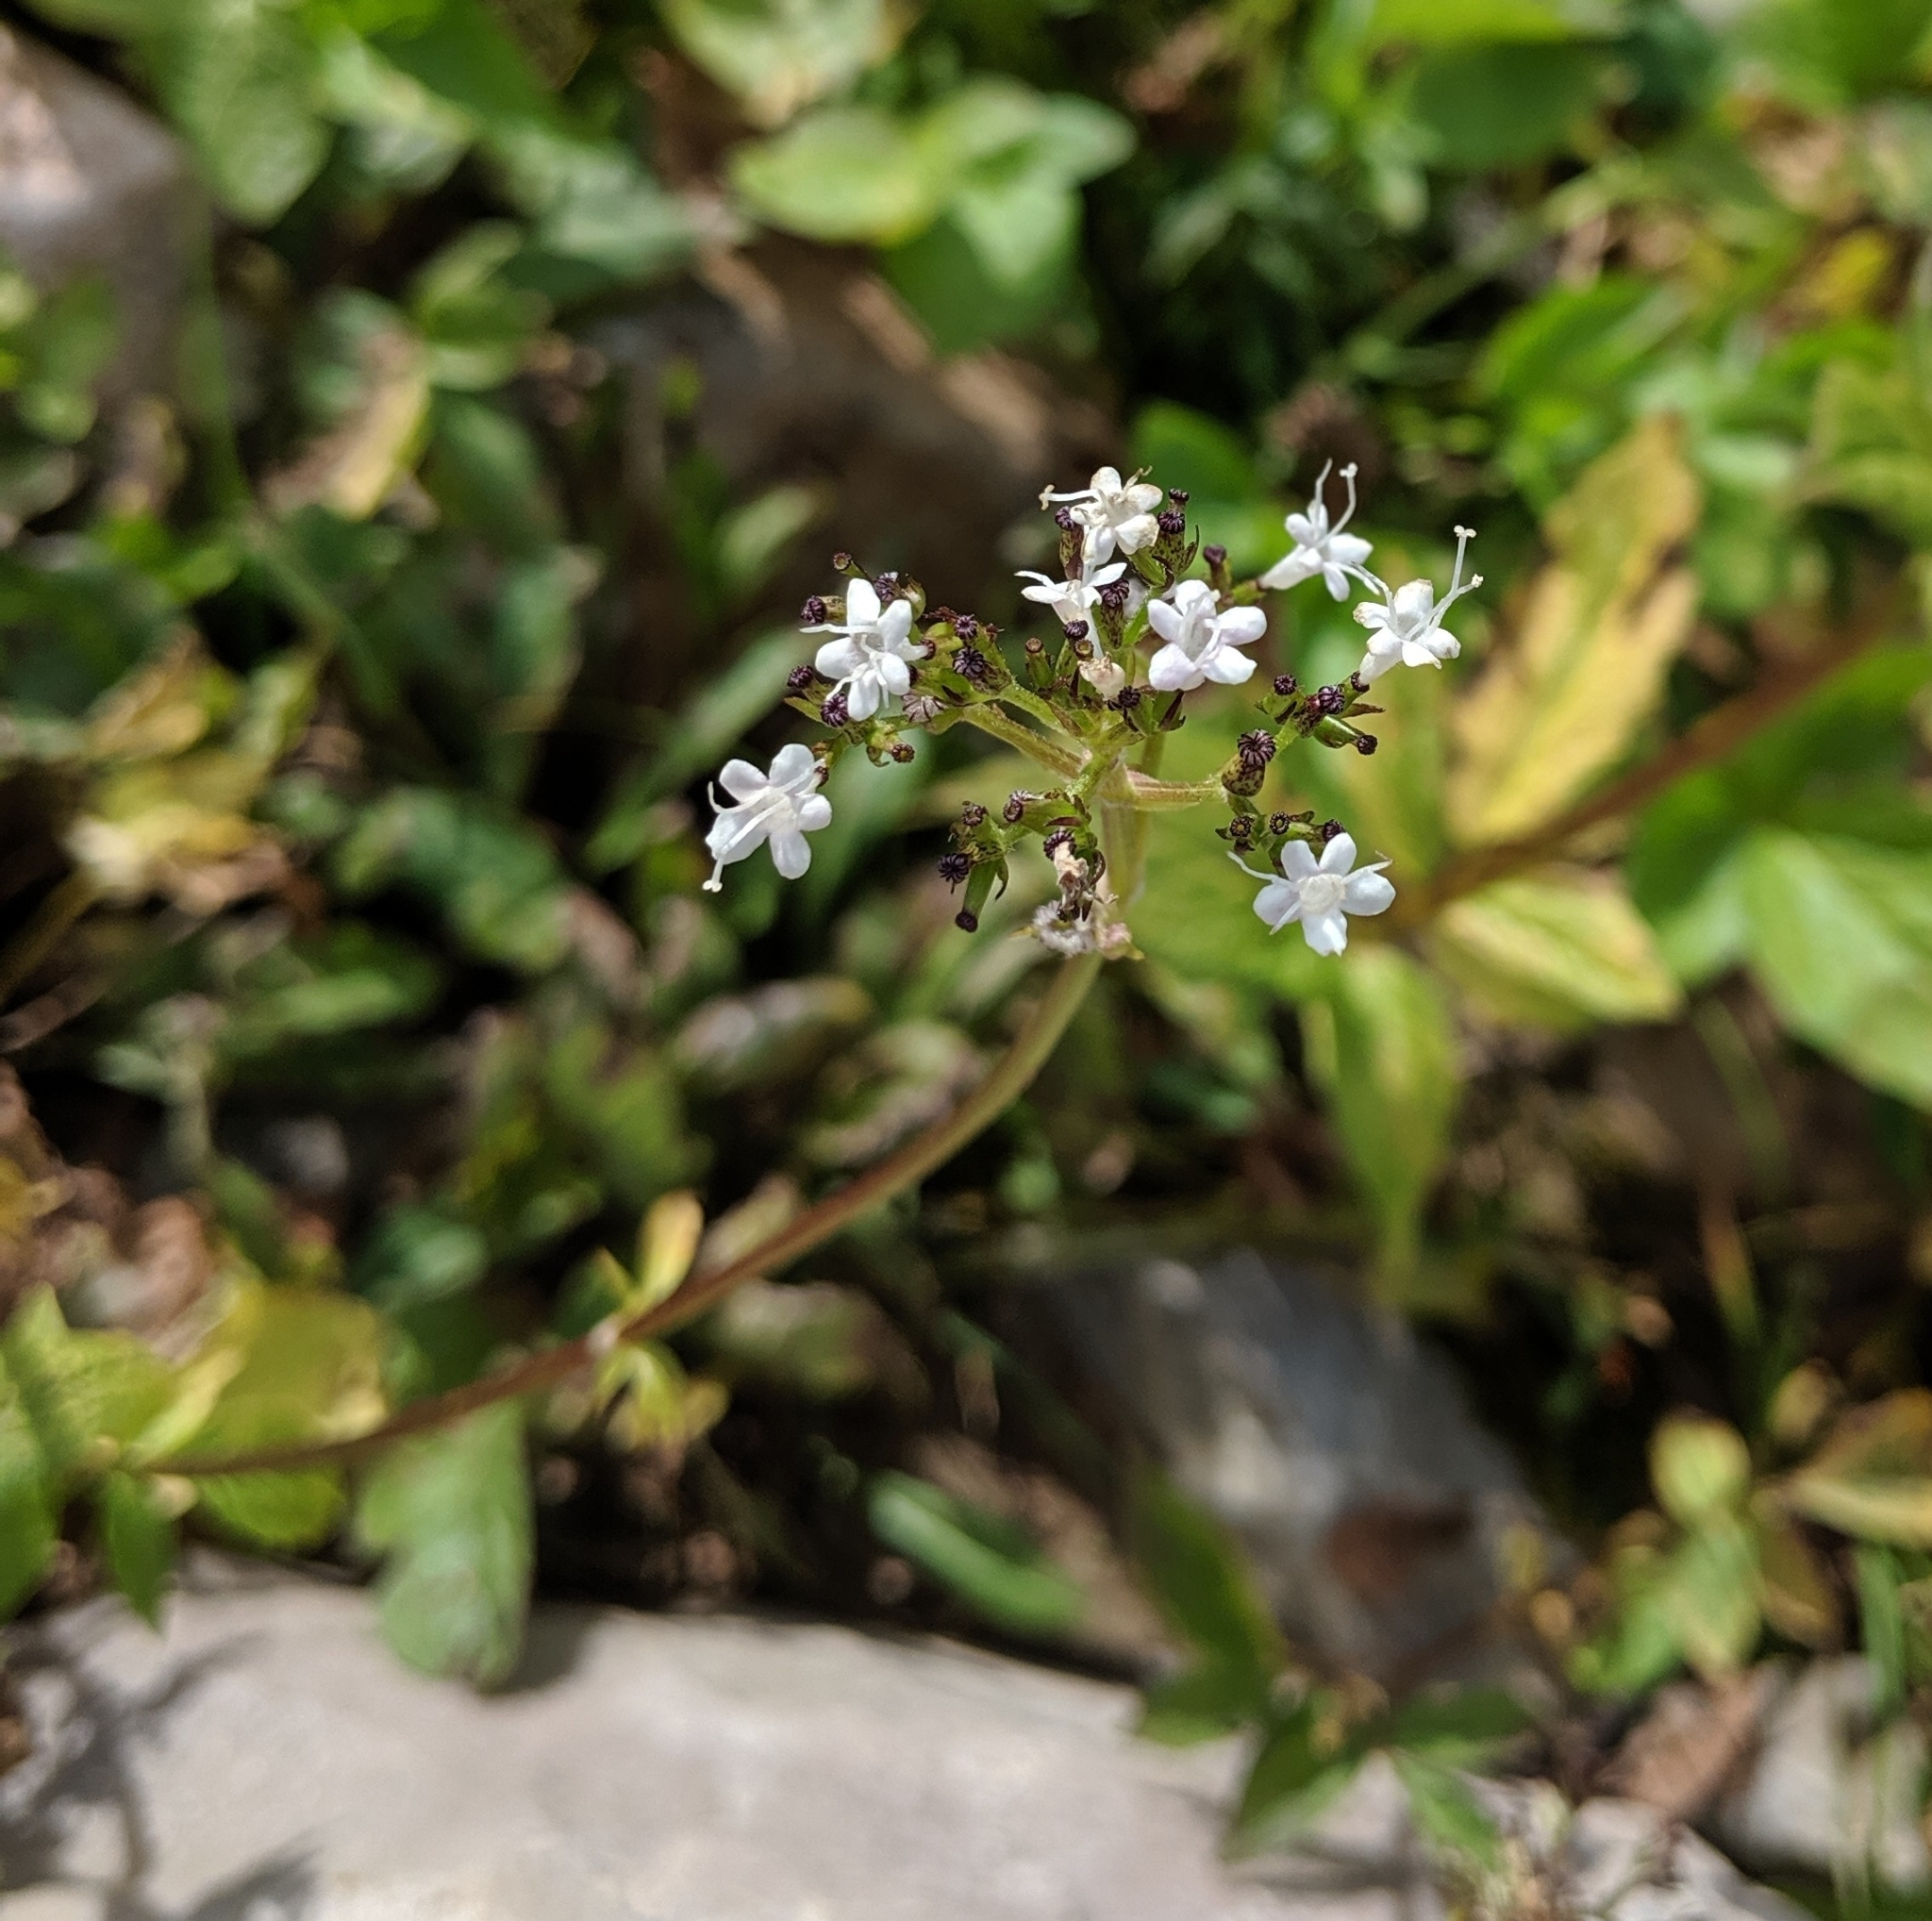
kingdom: Plantae
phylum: Tracheophyta
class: Magnoliopsida
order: Dipsacales
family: Caprifoliaceae
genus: Valeriana
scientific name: Valeriana sitchensis
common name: Pacific valerian
